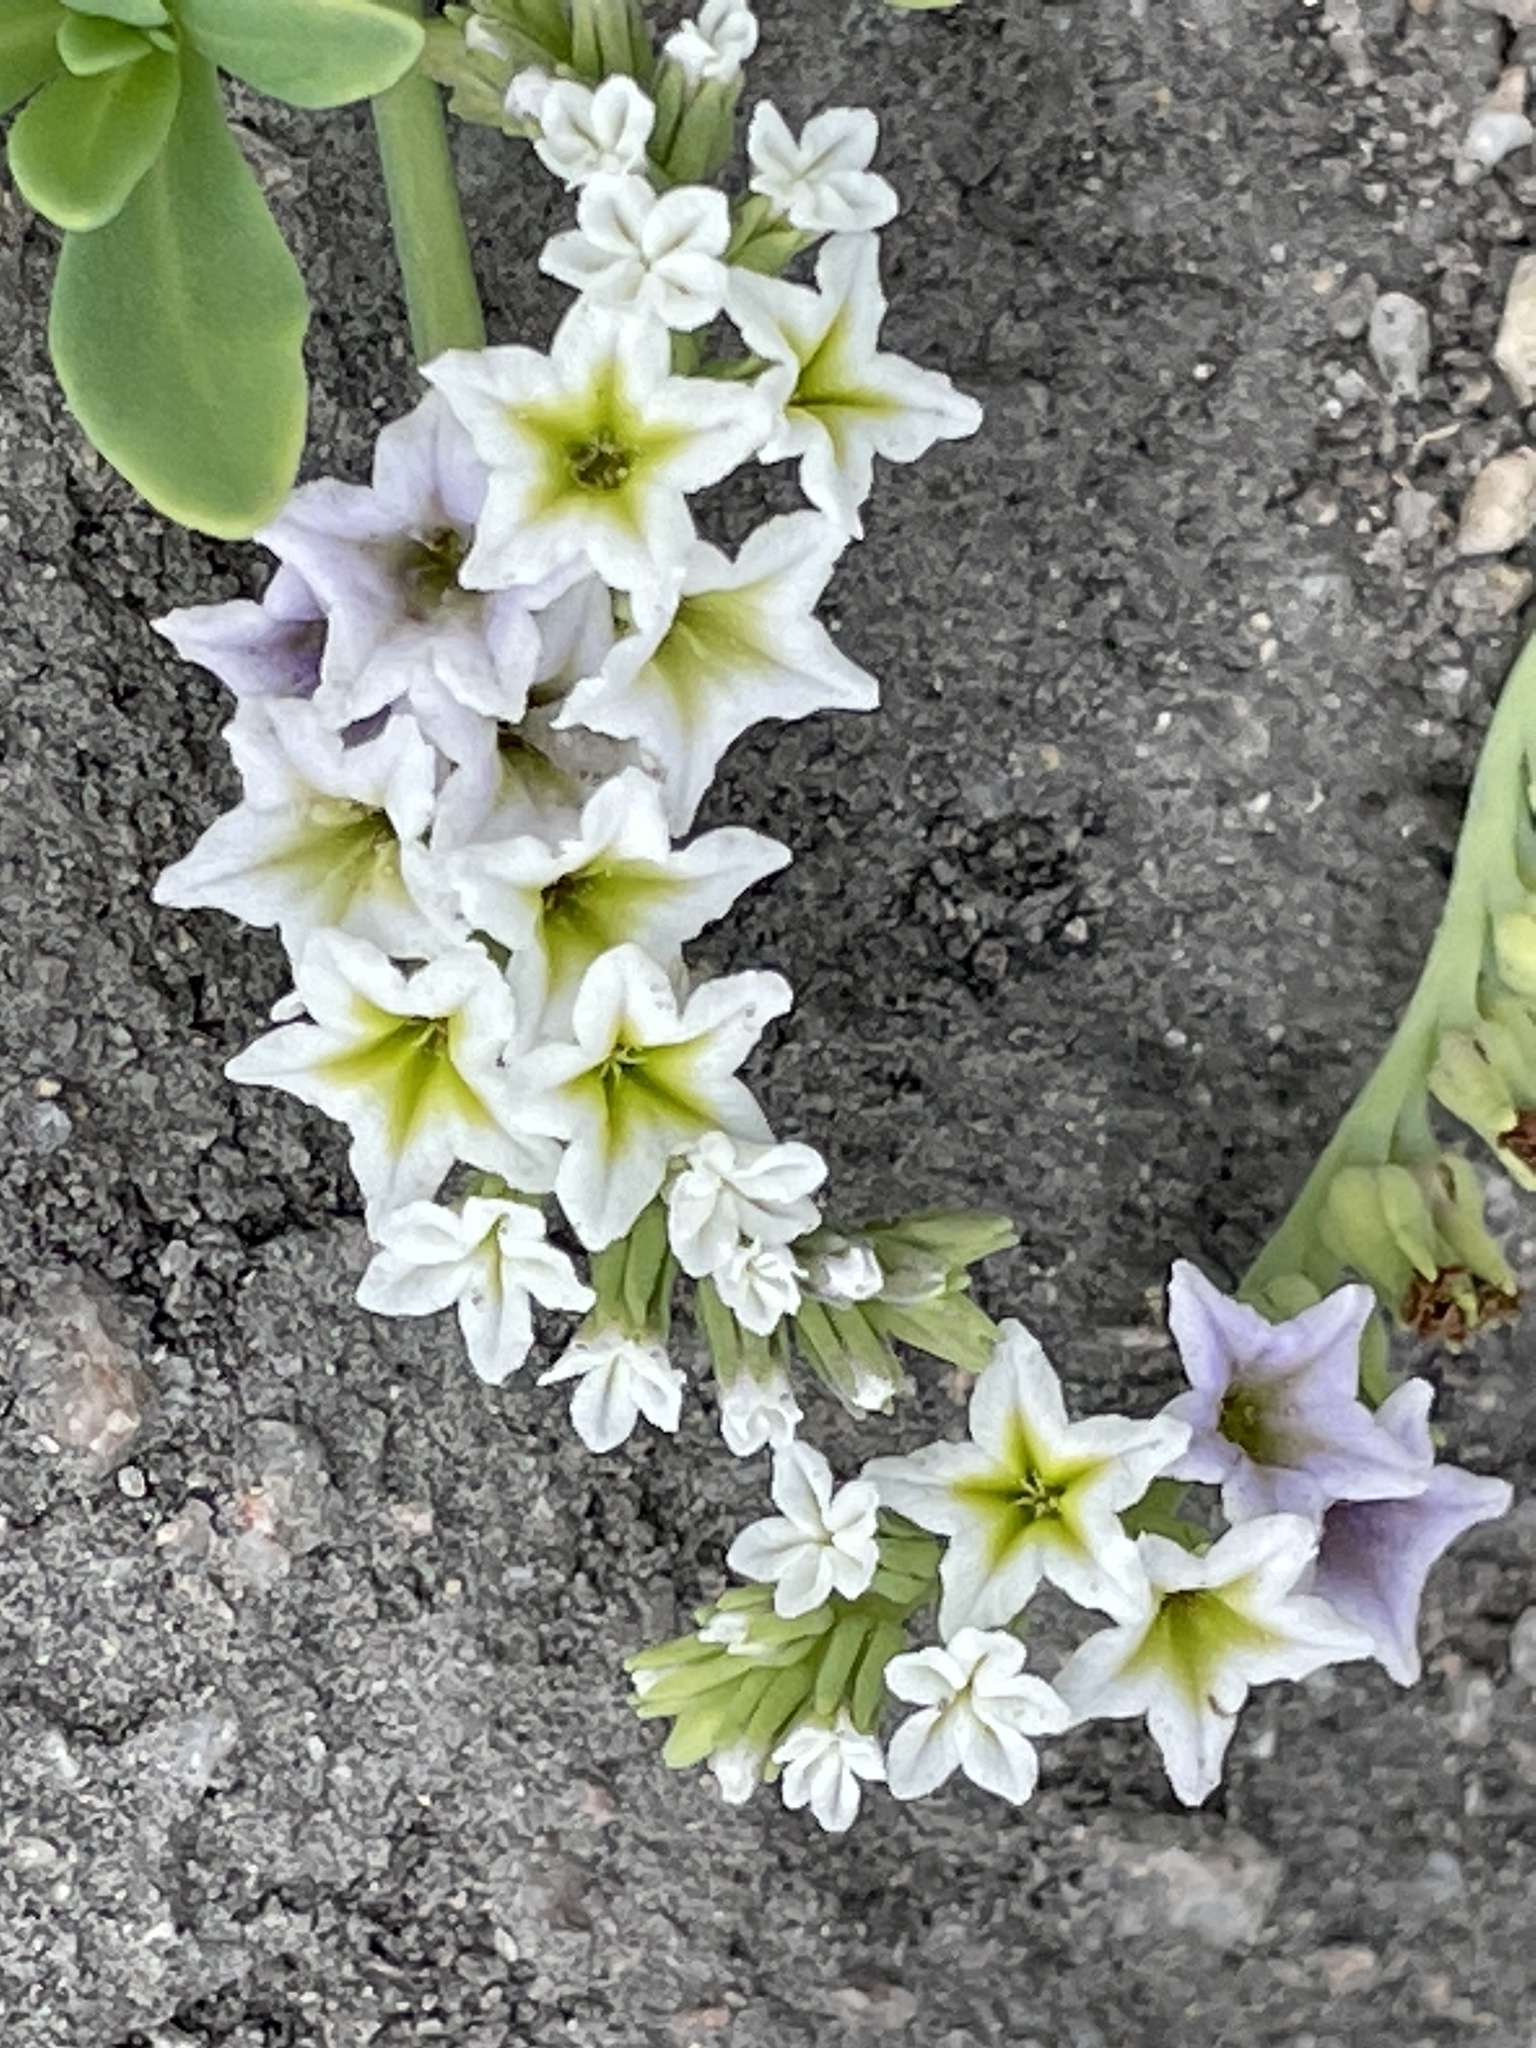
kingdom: Plantae
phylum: Tracheophyta
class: Magnoliopsida
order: Boraginales
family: Heliotropiaceae
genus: Heliotropium
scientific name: Heliotropium curassavicum
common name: Seaside heliotrope
